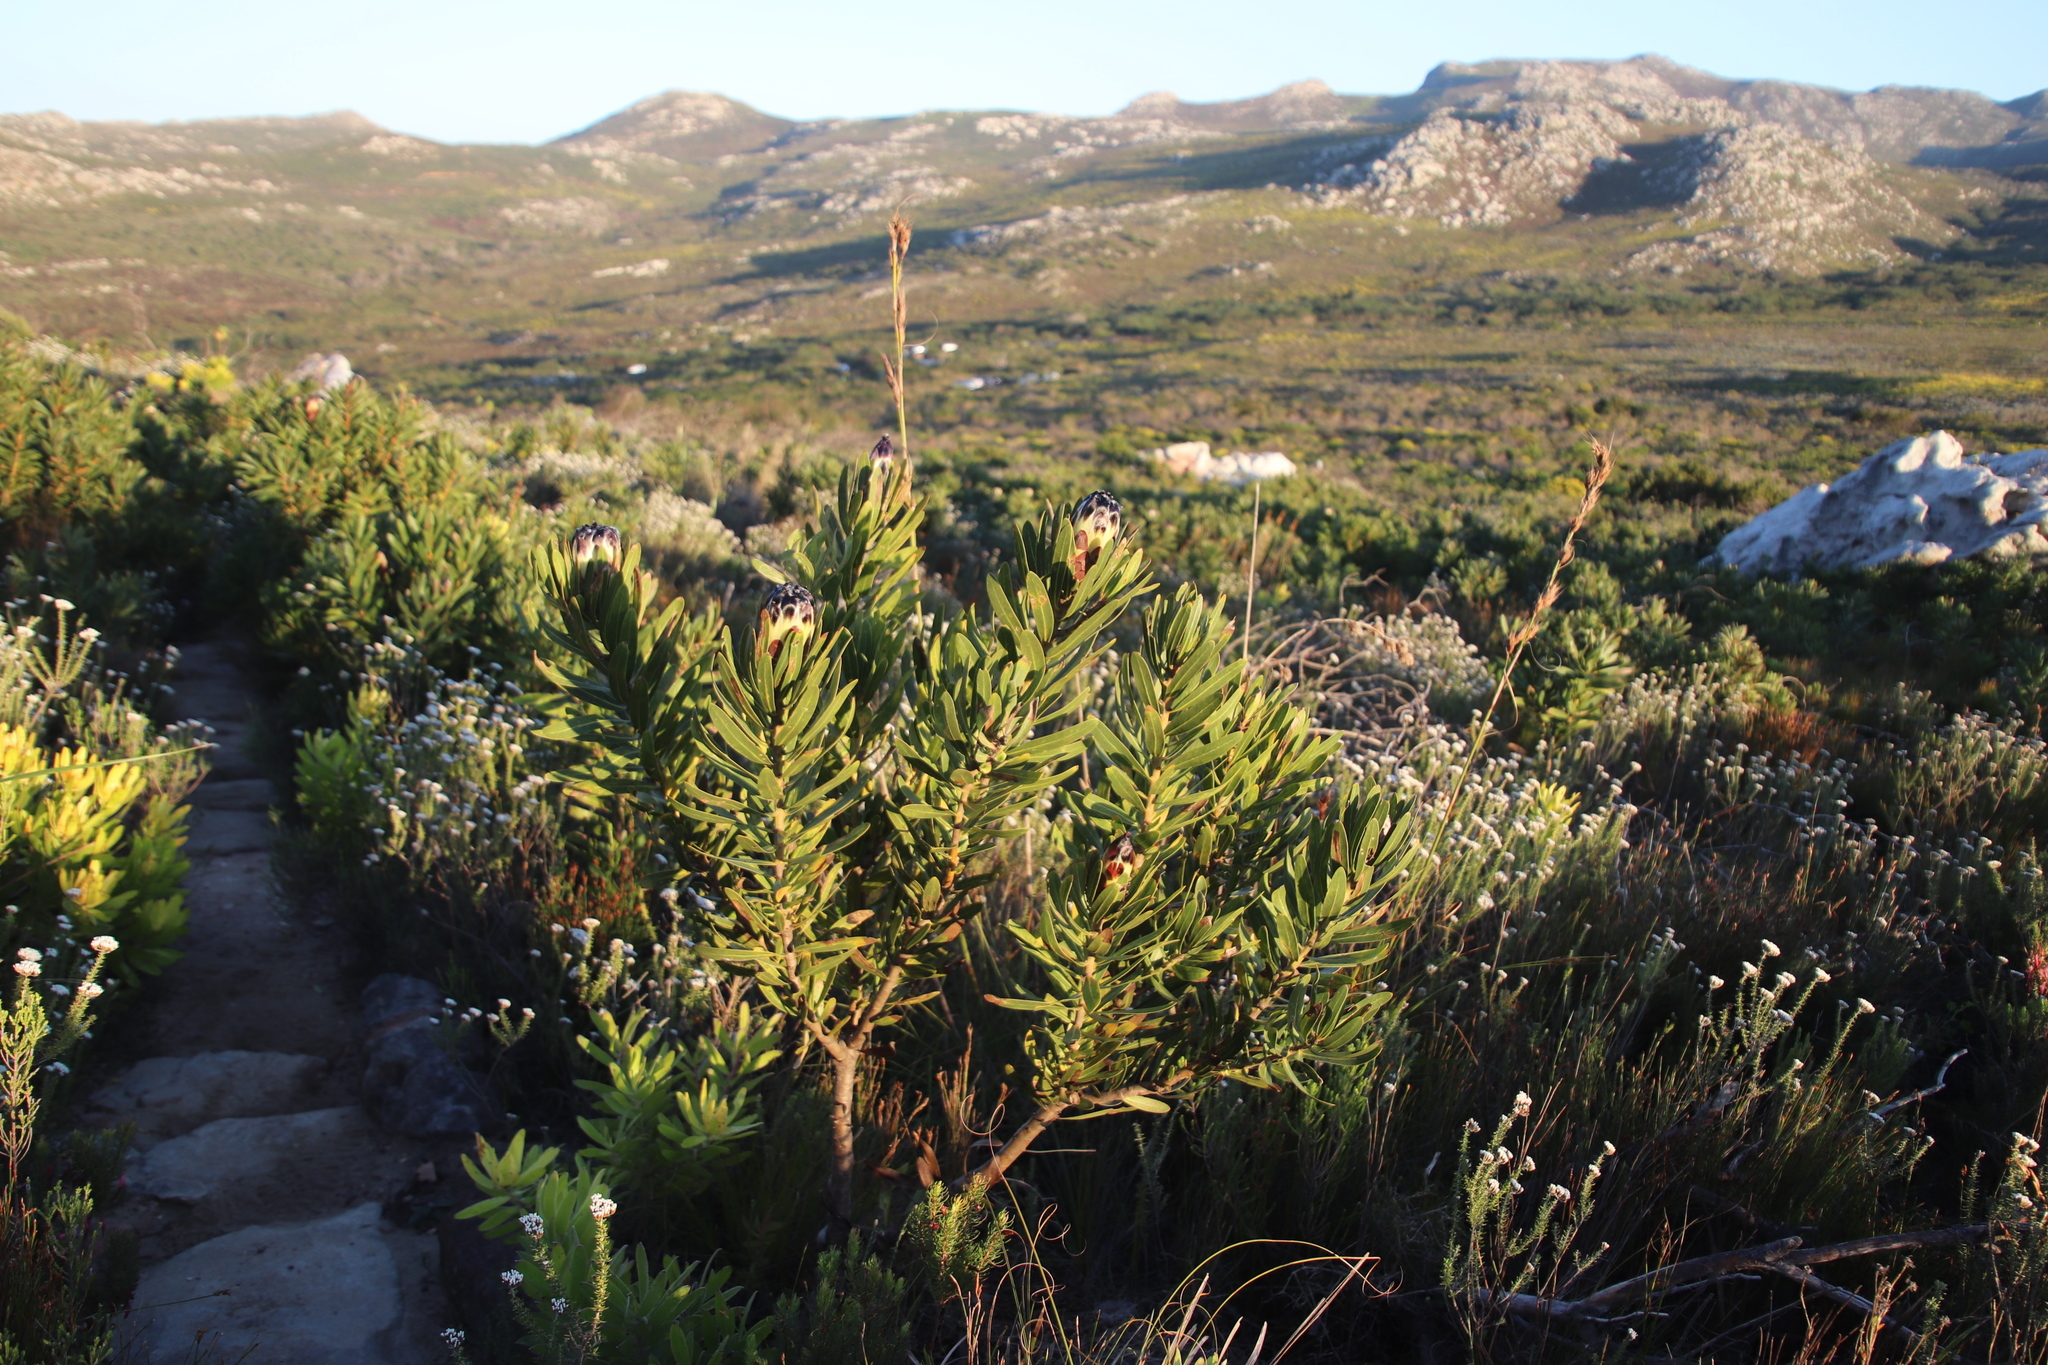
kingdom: Plantae
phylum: Tracheophyta
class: Magnoliopsida
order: Proteales
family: Proteaceae
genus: Protea
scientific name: Protea lepidocarpodendron
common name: Black-bearded protea
